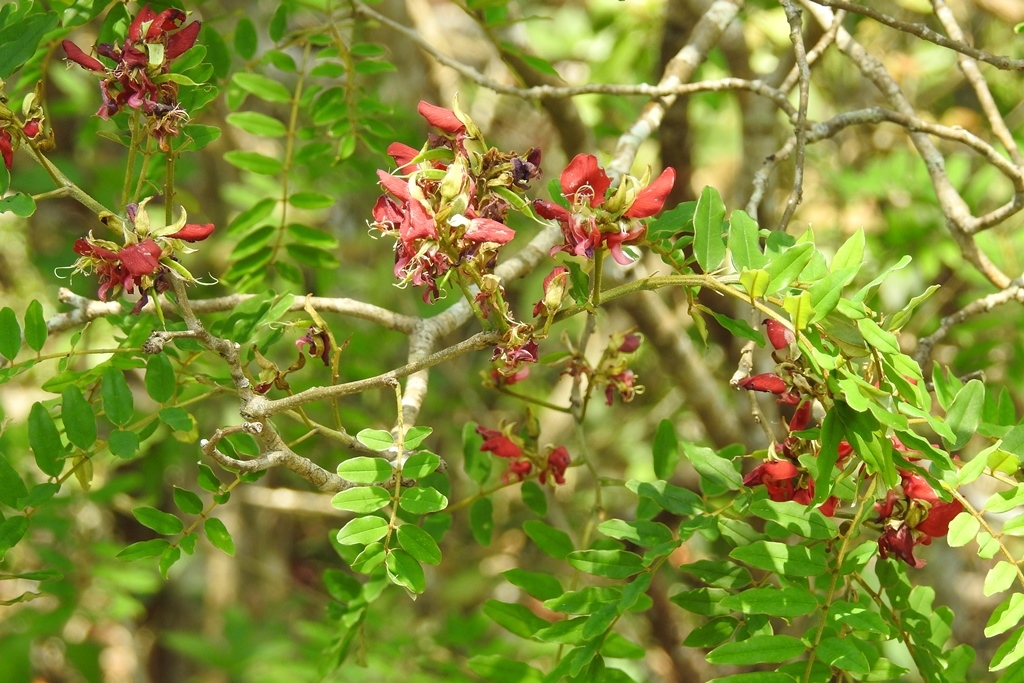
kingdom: Plantae
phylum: Tracheophyta
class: Magnoliopsida
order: Fabales
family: Fabaceae
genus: Harpalyce
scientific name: Harpalyce formosa
